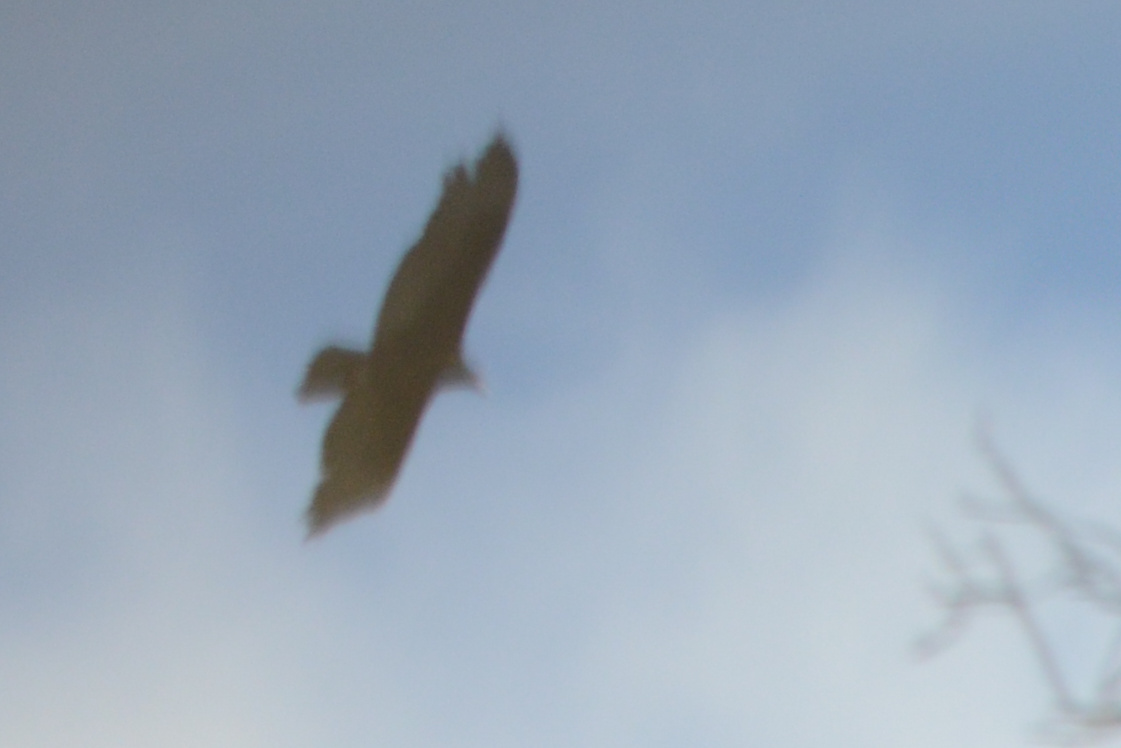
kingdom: Animalia
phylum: Chordata
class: Aves
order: Accipitriformes
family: Cathartidae
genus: Cathartes
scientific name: Cathartes aura
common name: Turkey vulture
